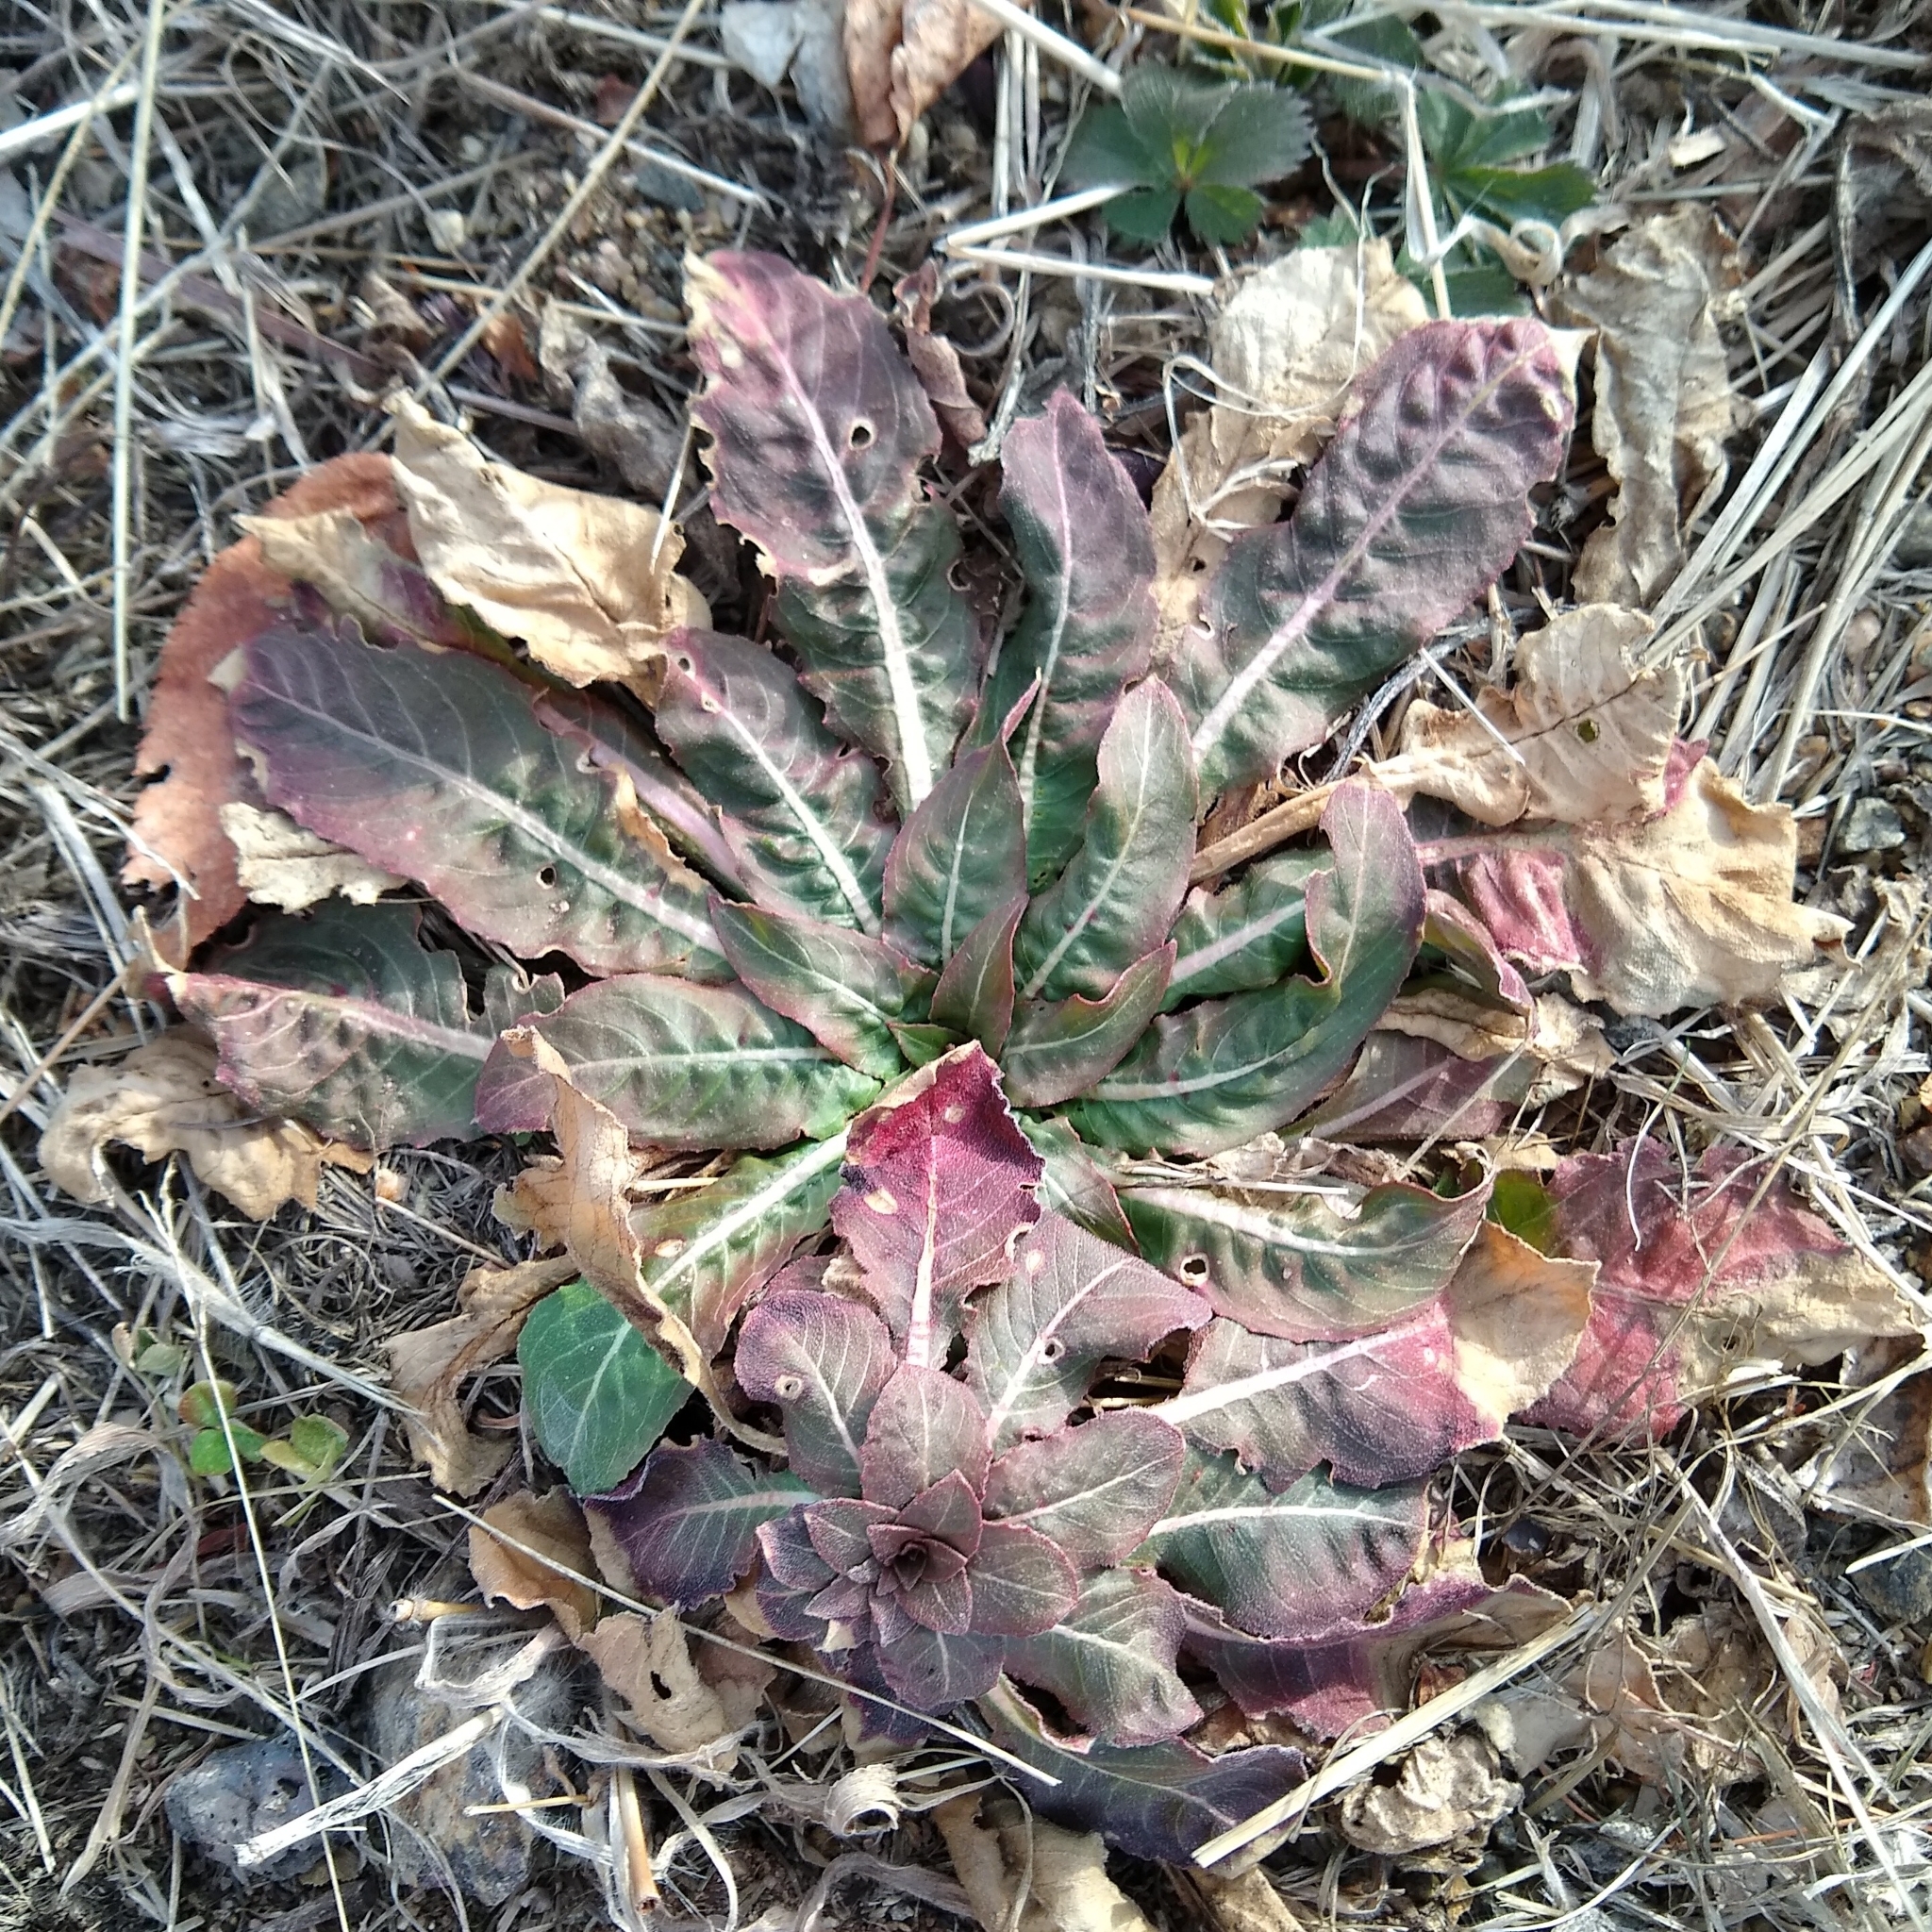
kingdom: Plantae
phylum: Tracheophyta
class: Magnoliopsida
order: Myrtales
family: Onagraceae
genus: Oenothera
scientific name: Oenothera
